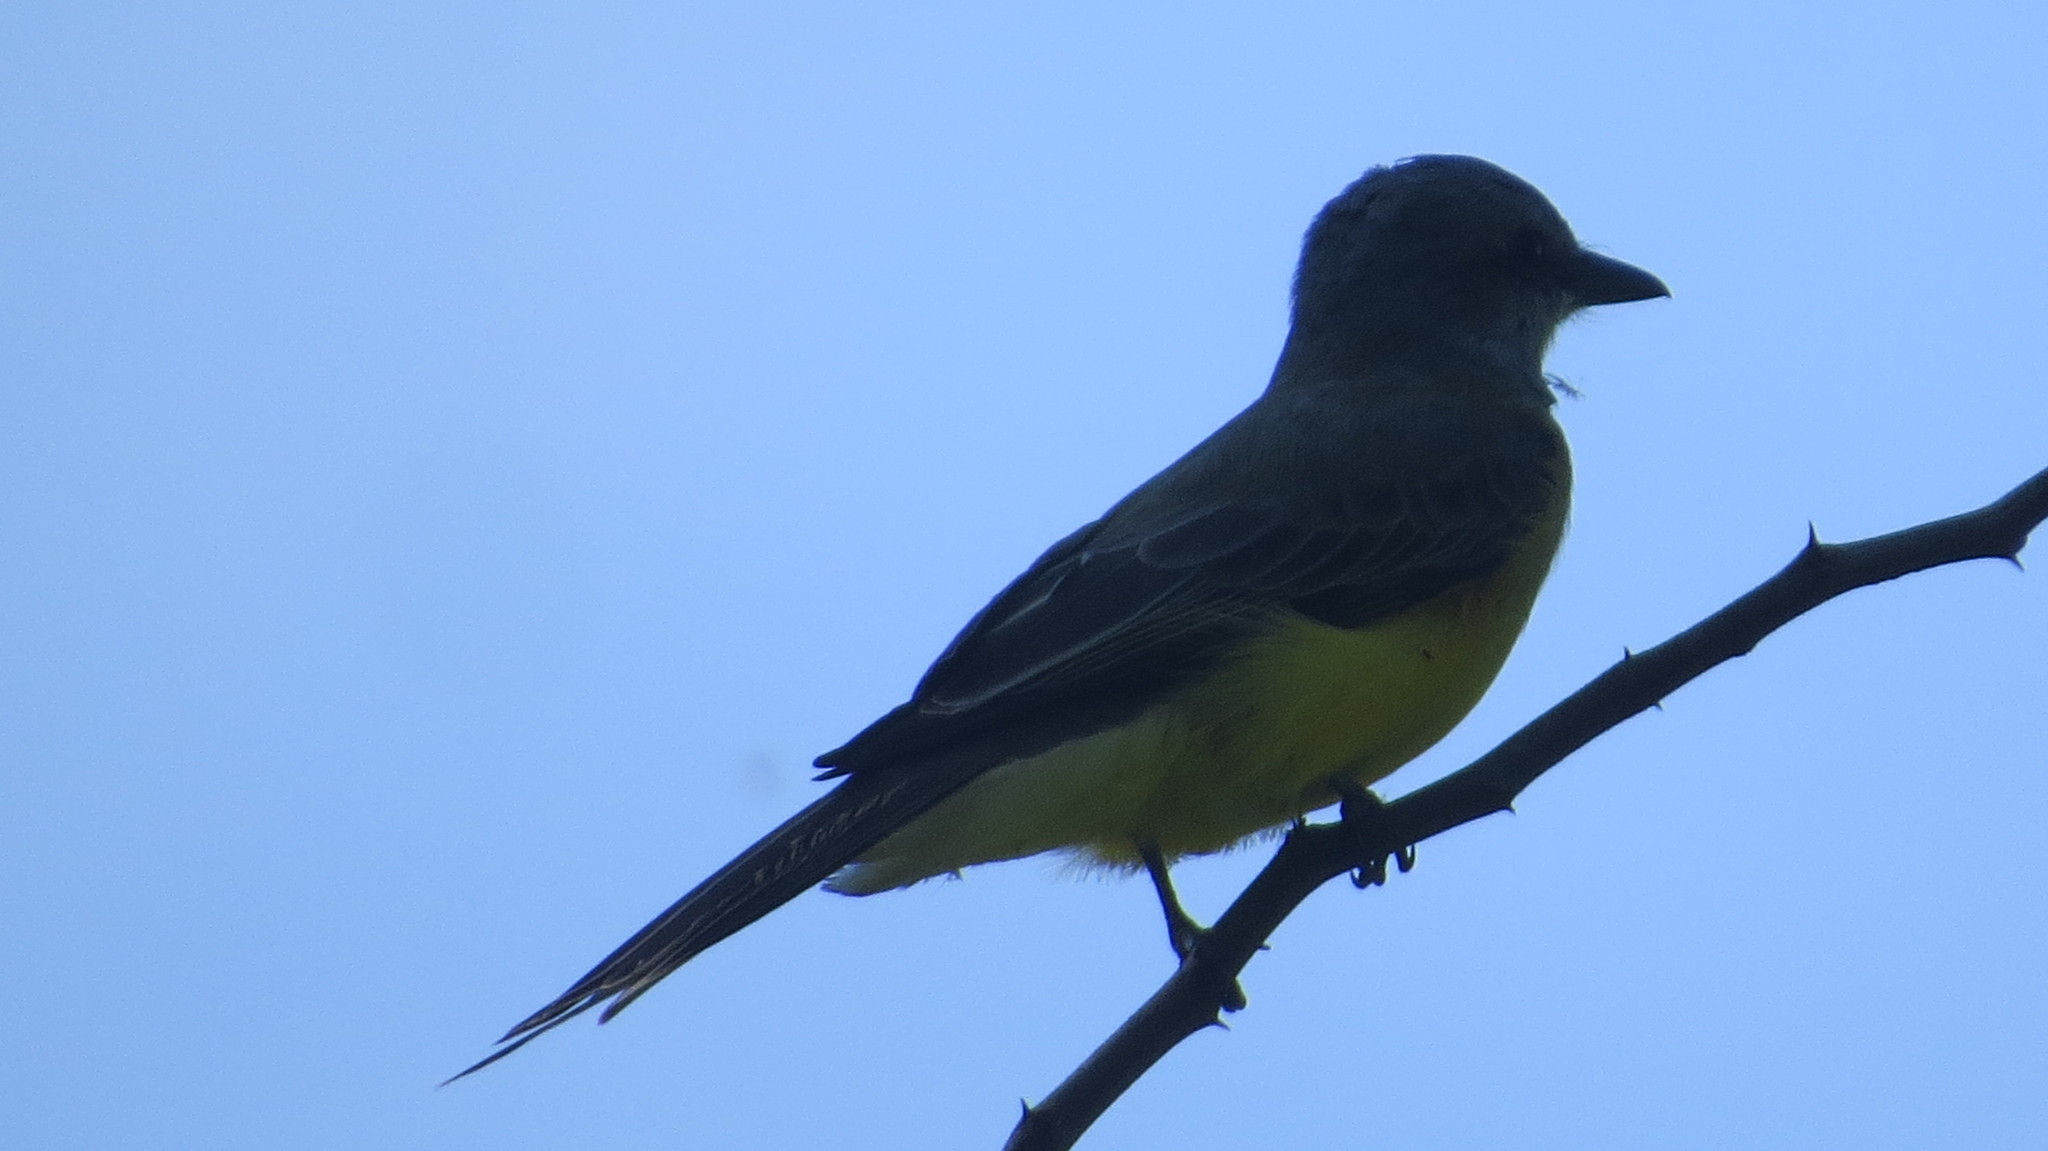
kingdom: Animalia
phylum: Chordata
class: Aves
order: Passeriformes
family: Tyrannidae
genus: Tyrannus
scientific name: Tyrannus melancholicus
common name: Tropical kingbird
